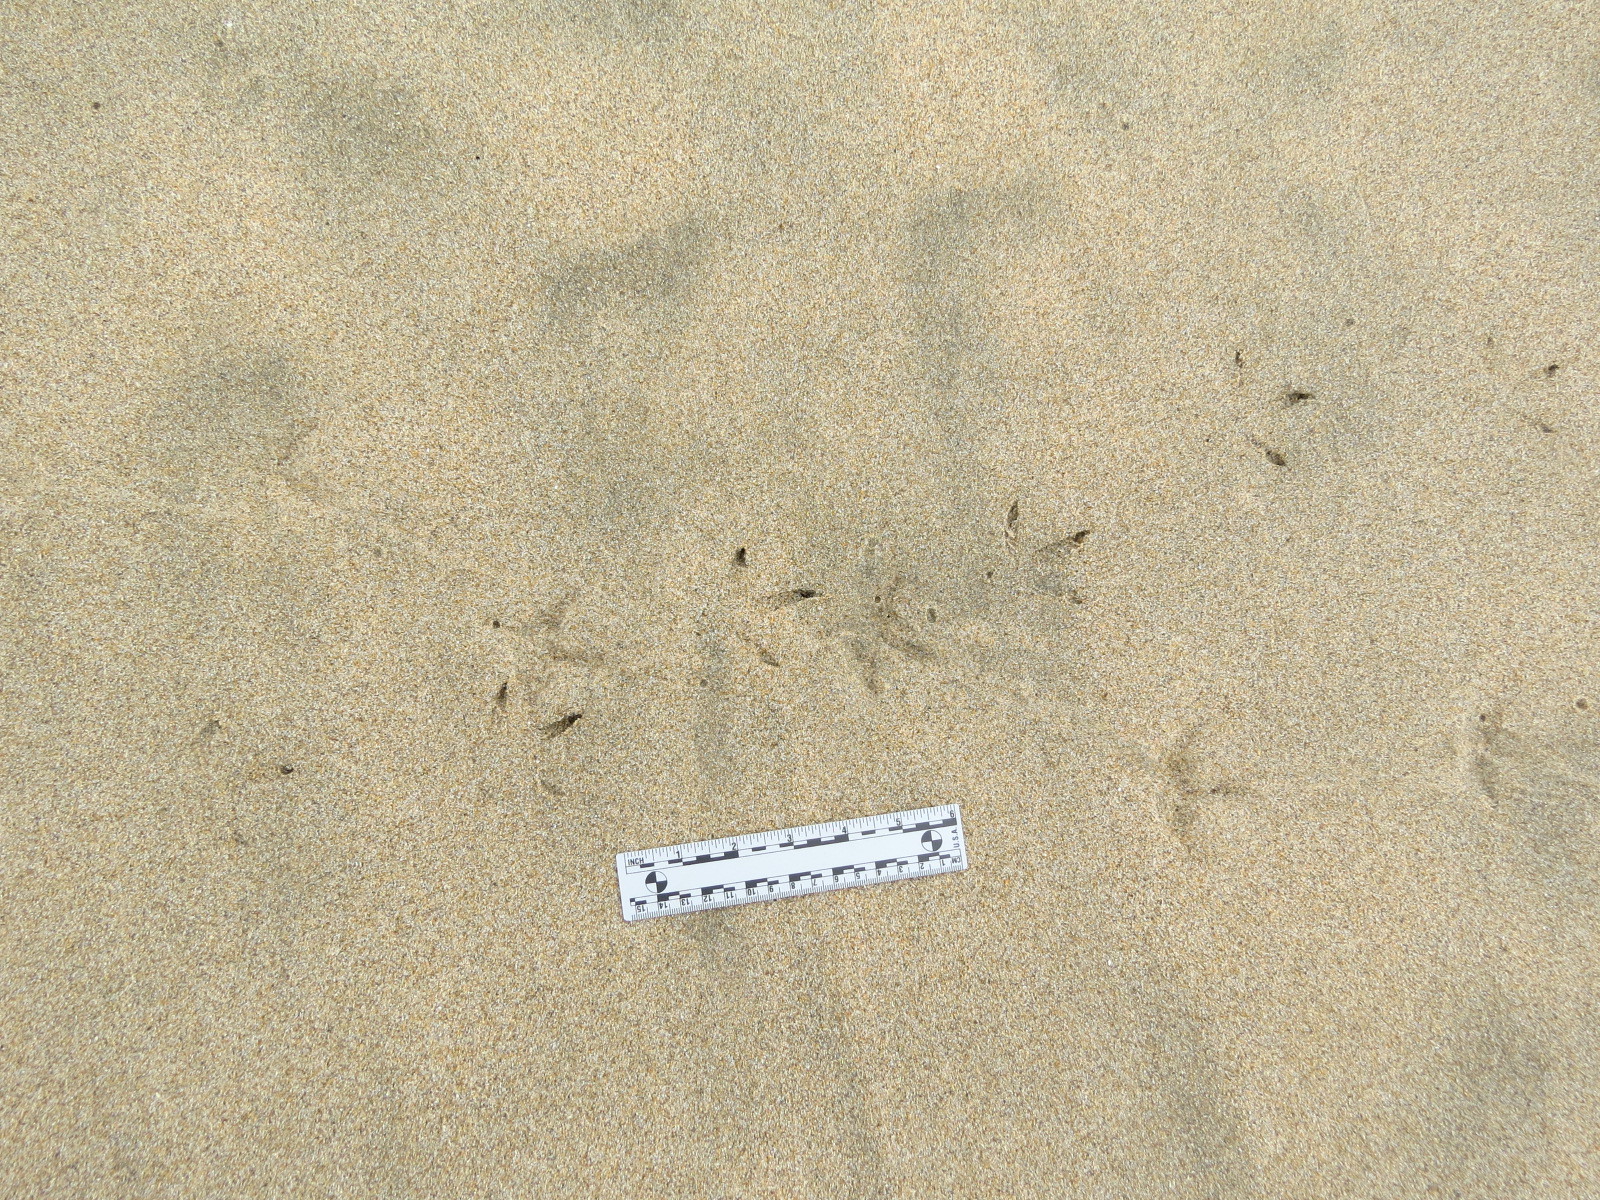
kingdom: Animalia
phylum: Chordata
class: Aves
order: Charadriiformes
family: Scolopacidae
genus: Numenius
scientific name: Numenius phaeopus
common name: Whimbrel
